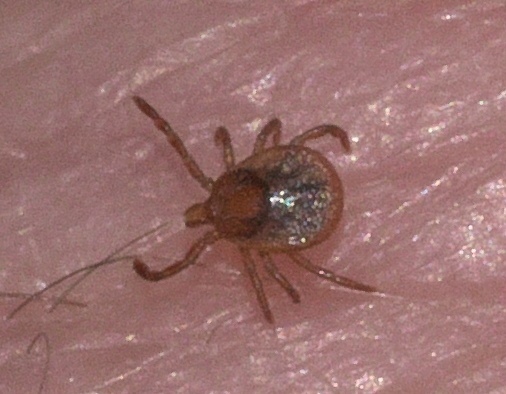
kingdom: Animalia
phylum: Arthropoda
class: Arachnida
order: Ixodida
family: Ixodidae
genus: Amblyomma
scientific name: Amblyomma americanum
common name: Lone star tick
